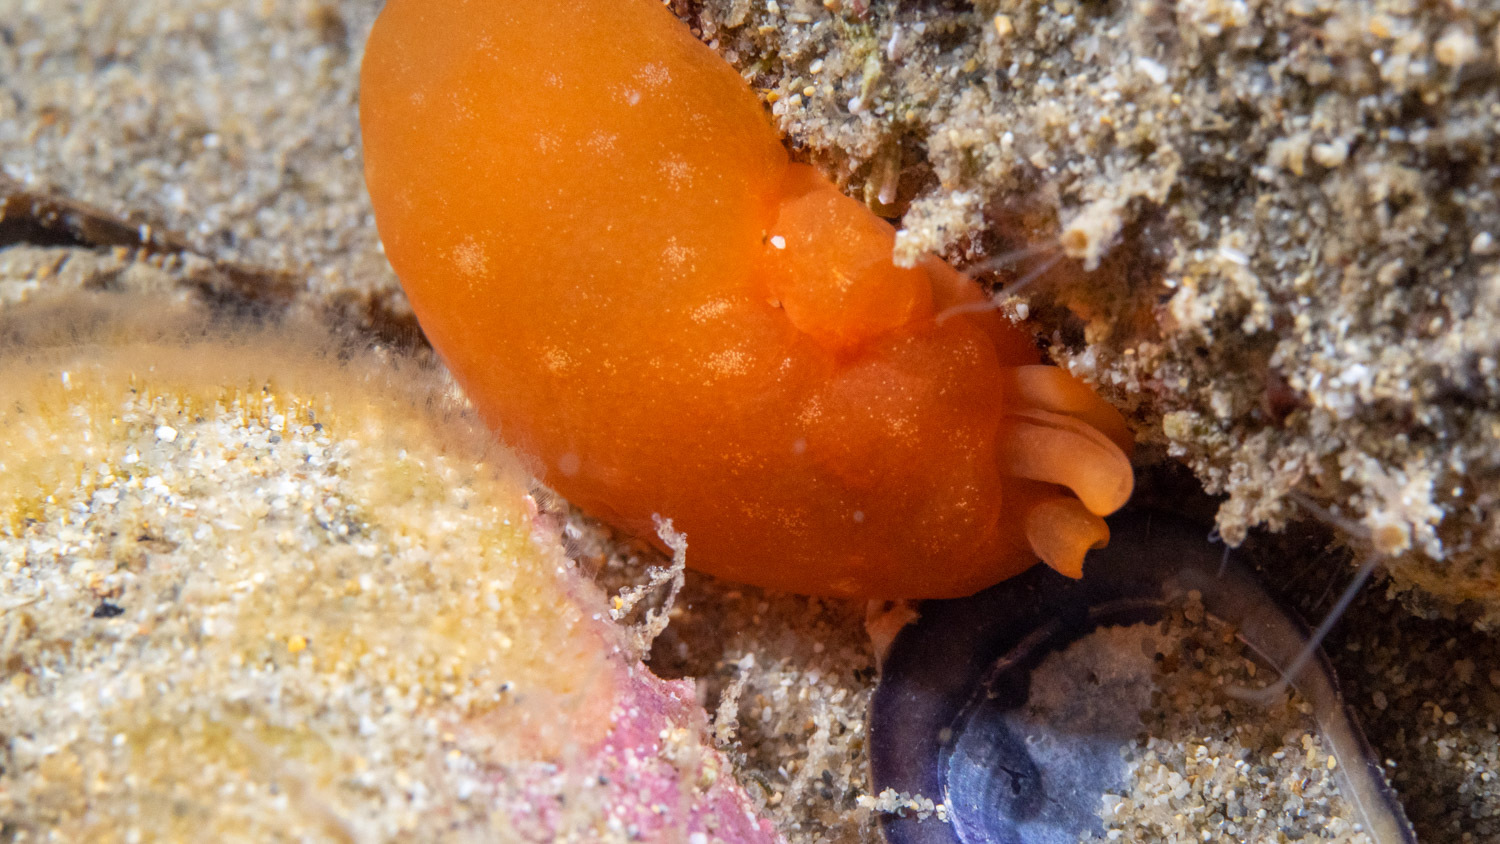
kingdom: Animalia
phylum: Mollusca
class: Gastropoda
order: Pleurobranchida
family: Pleurobranchidae
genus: Berthellina
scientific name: Berthellina citrina
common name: Lemon pleurobranch
